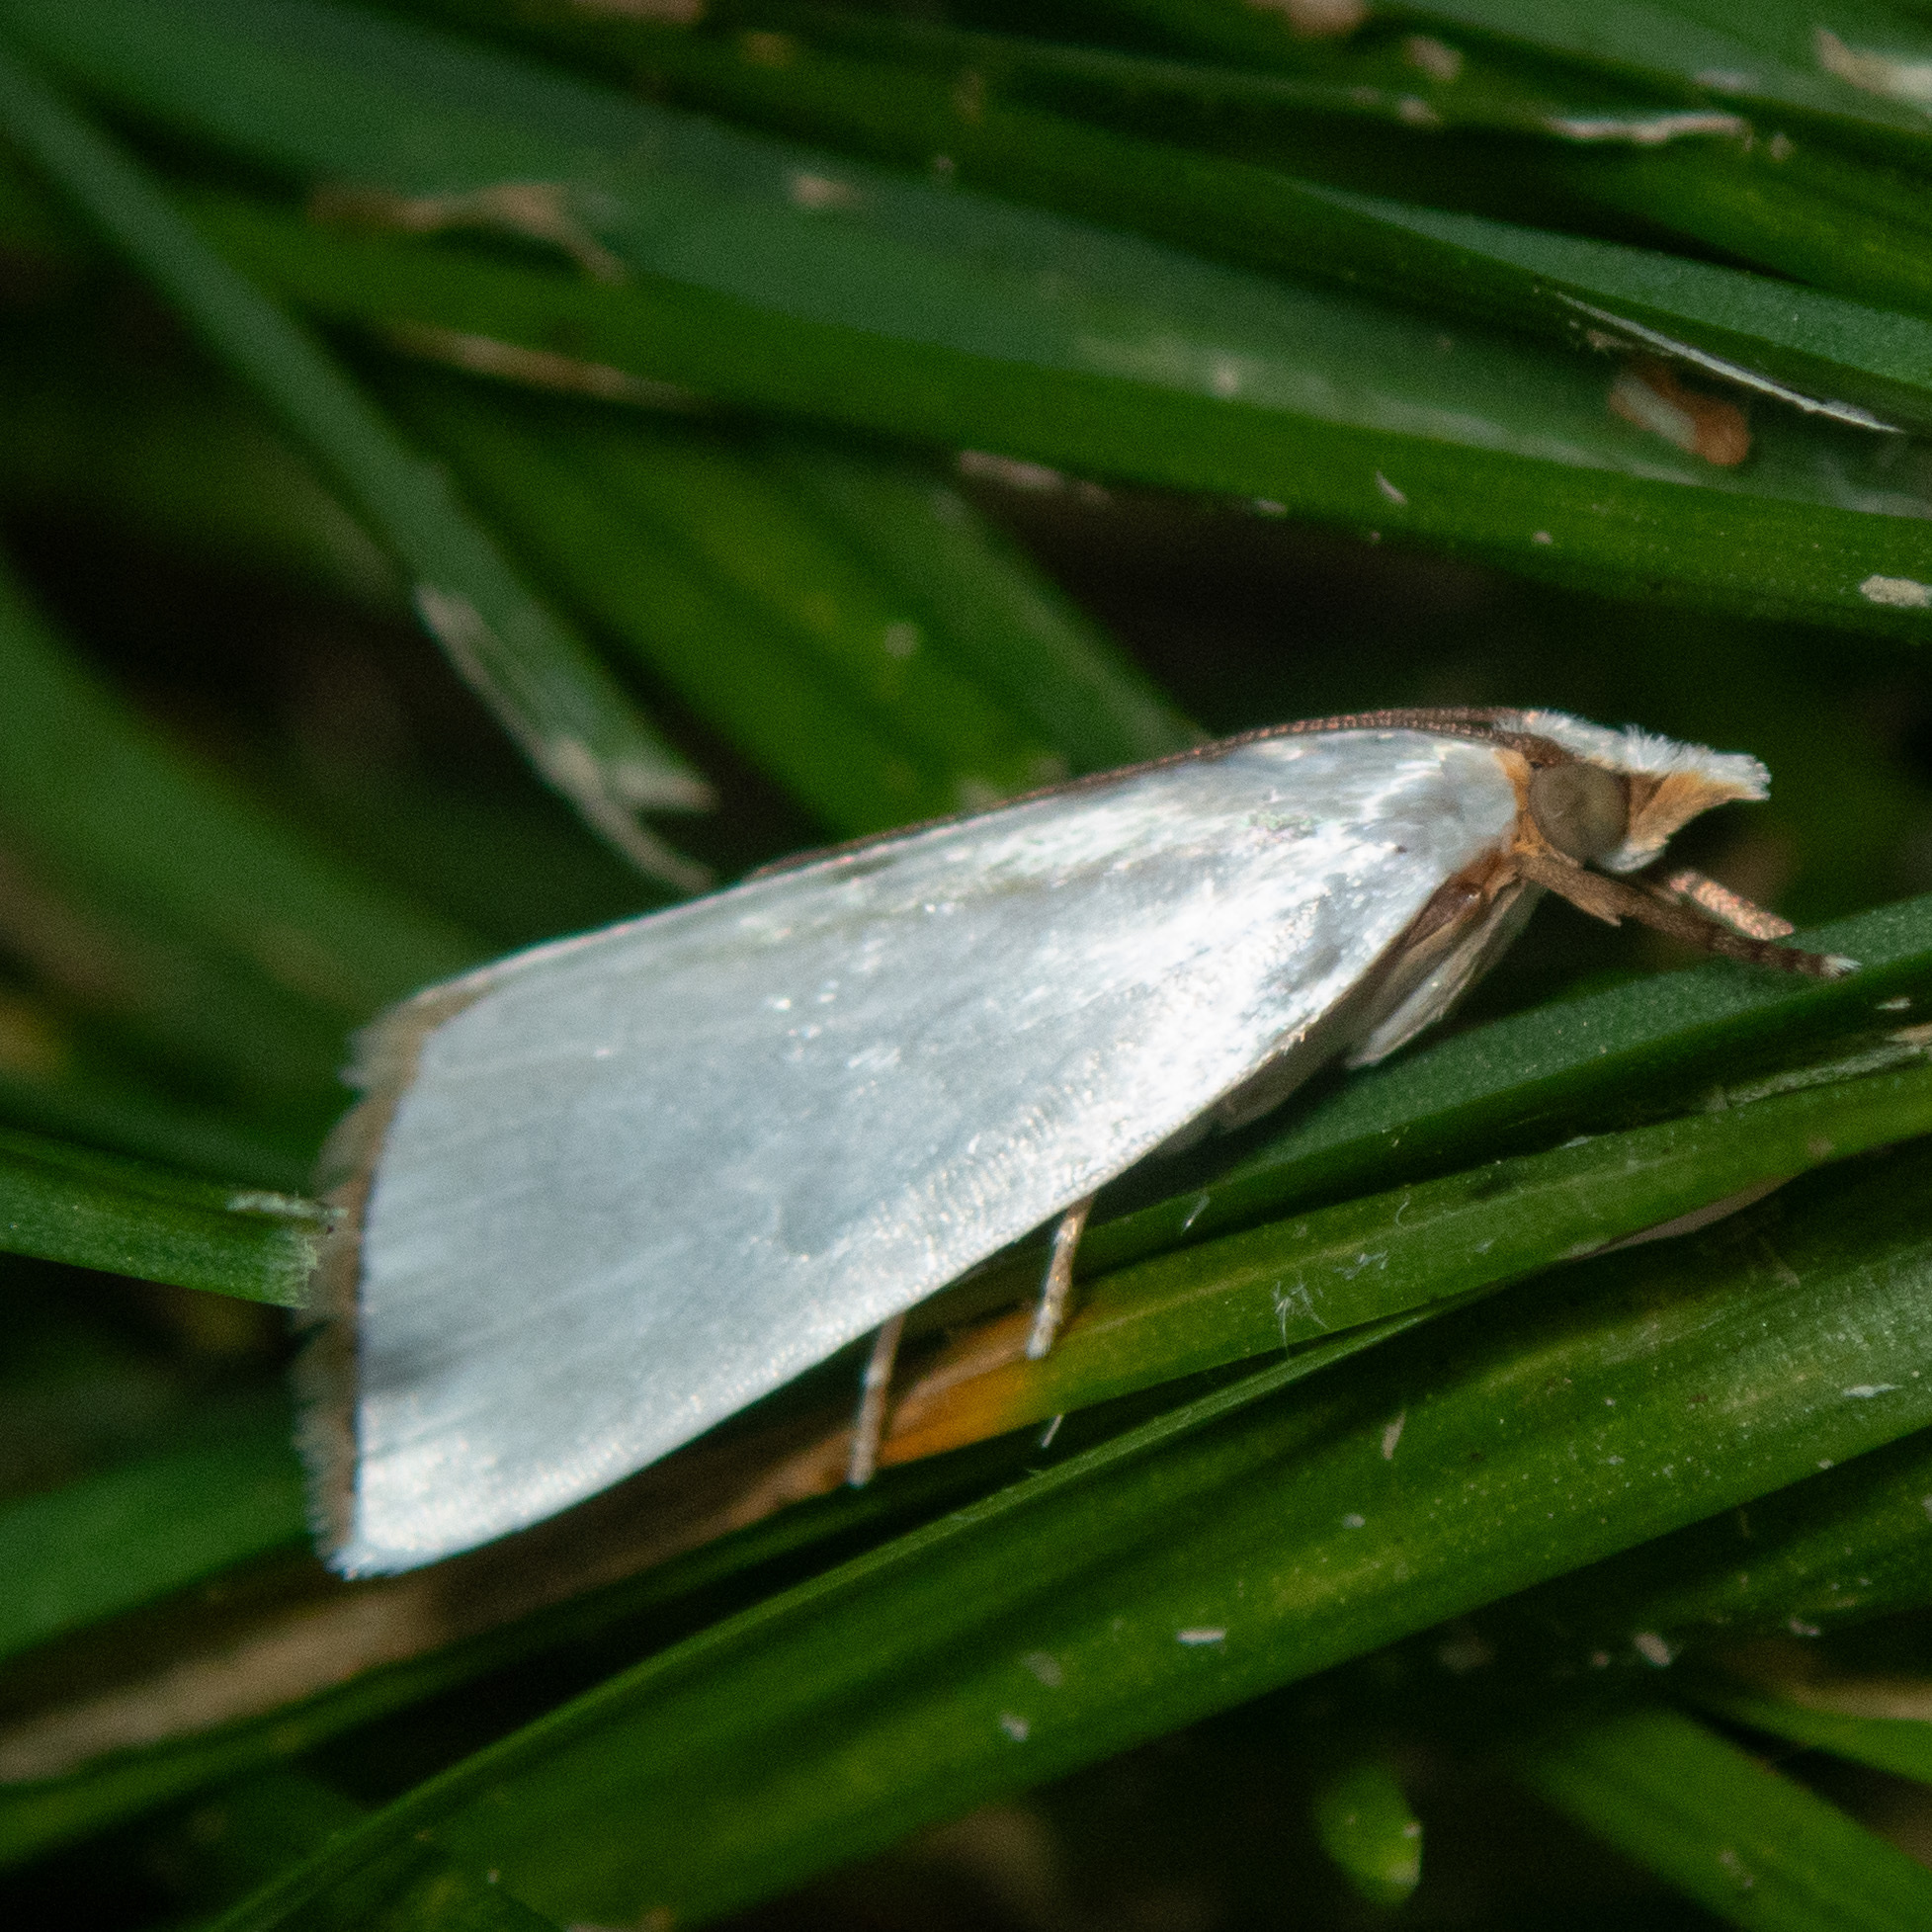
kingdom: Animalia
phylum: Arthropoda
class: Insecta
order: Lepidoptera
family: Crambidae
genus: Argyria
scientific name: Argyria nivalis
